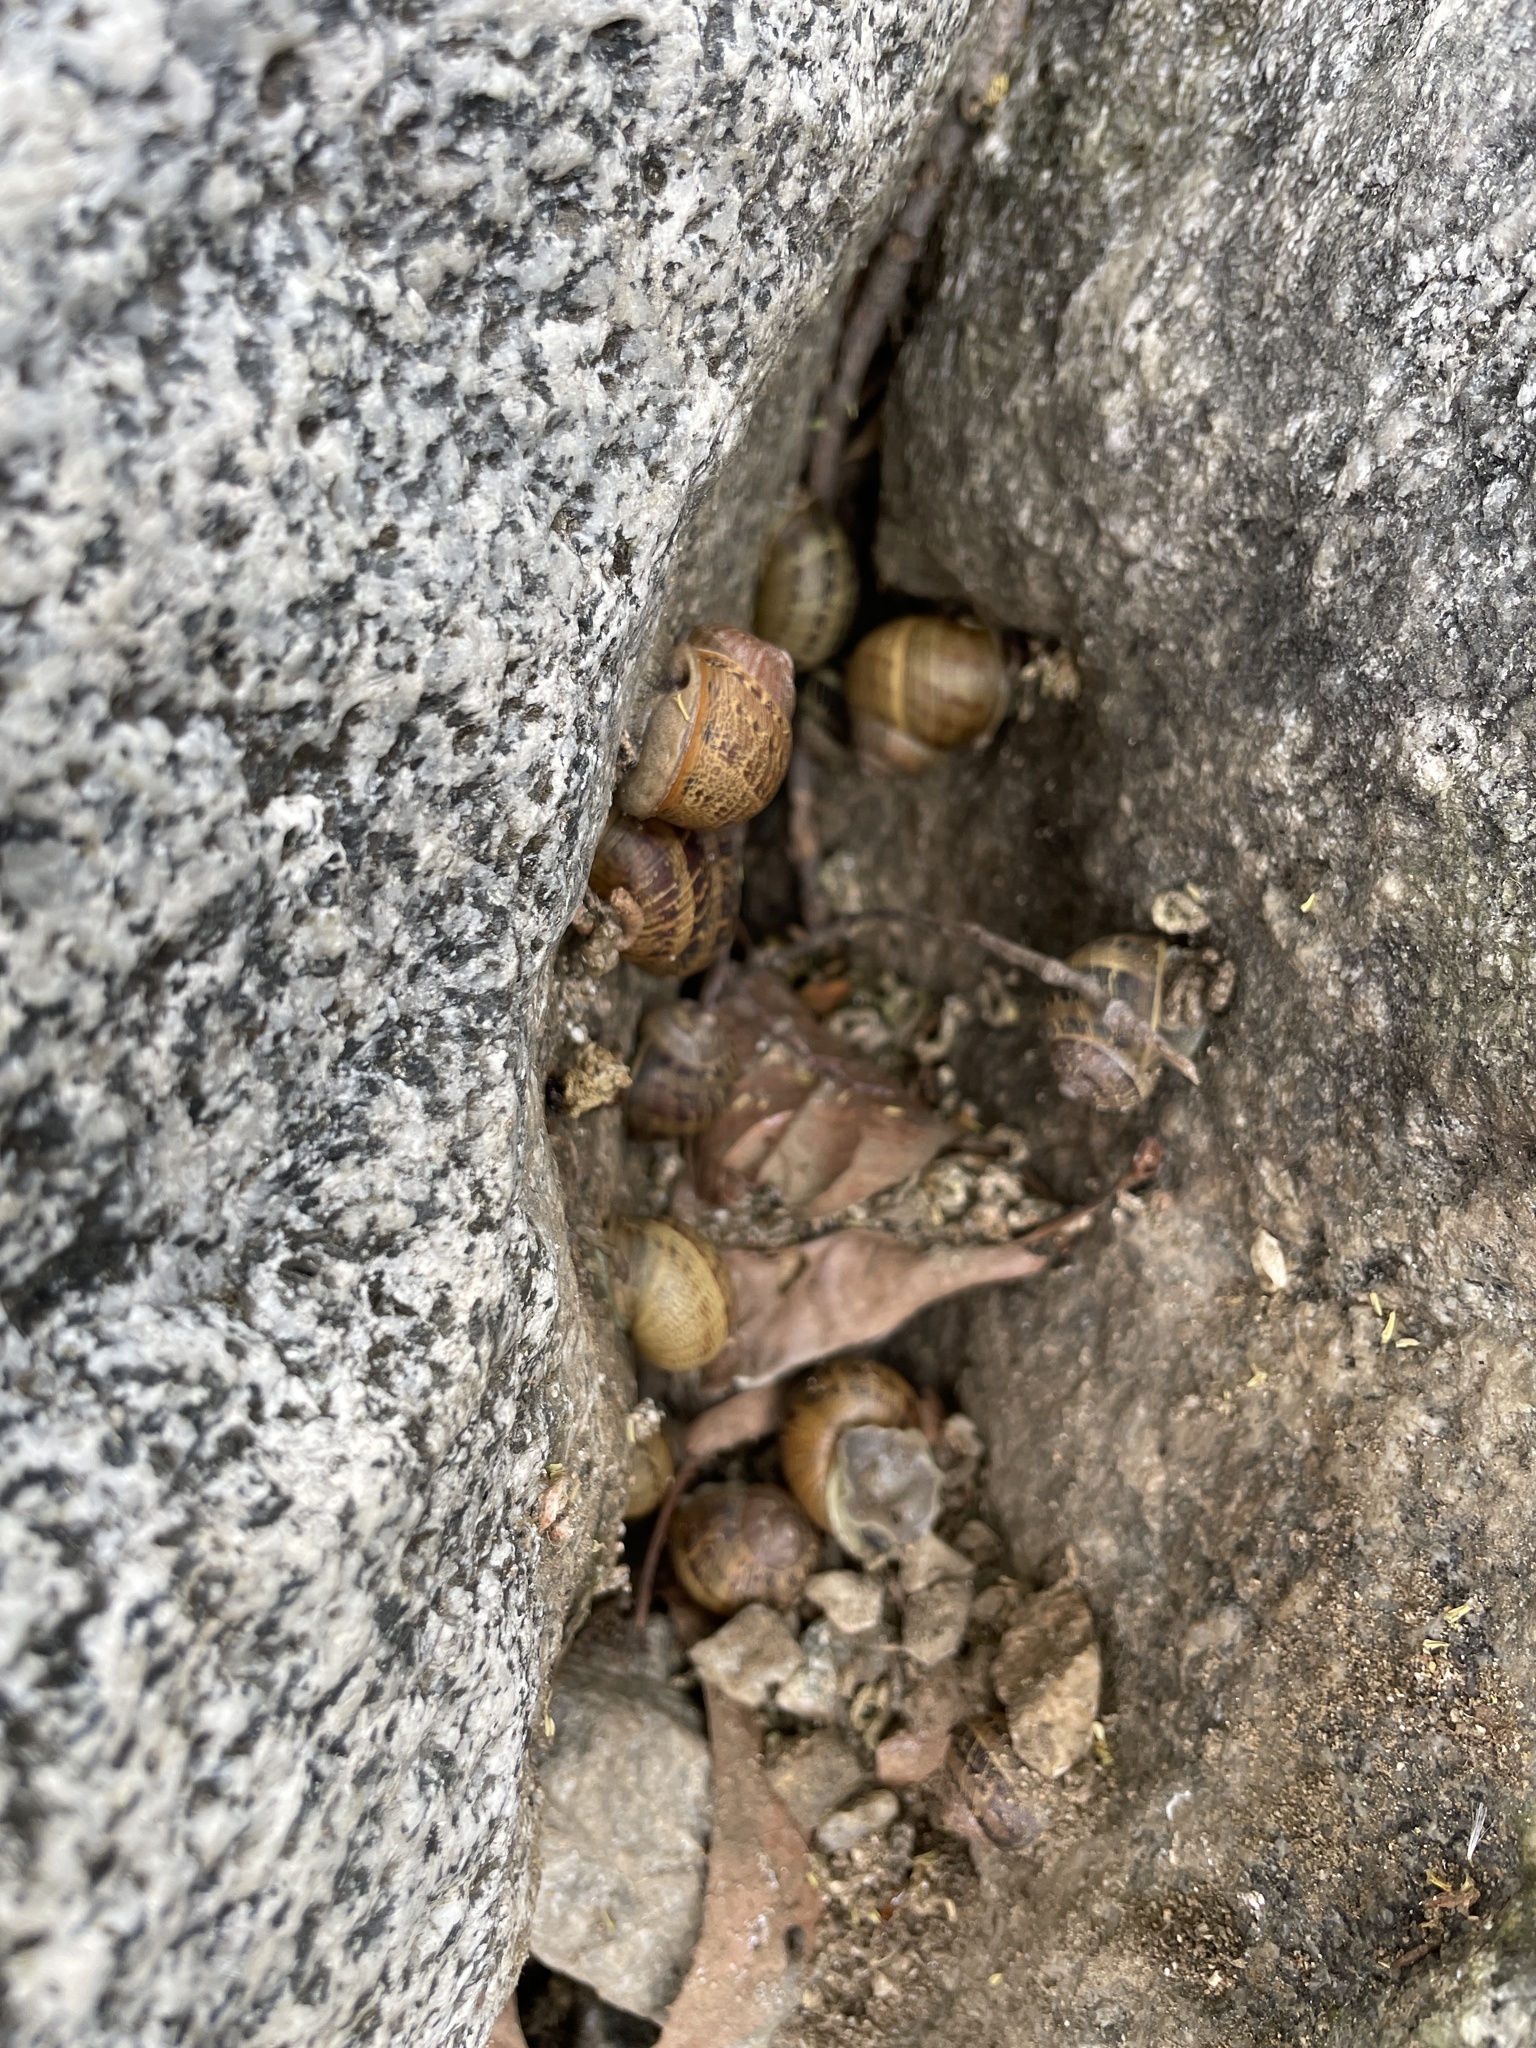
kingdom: Animalia
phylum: Mollusca
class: Gastropoda
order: Stylommatophora
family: Helicidae
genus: Cornu
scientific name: Cornu aspersum
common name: Brown garden snail
